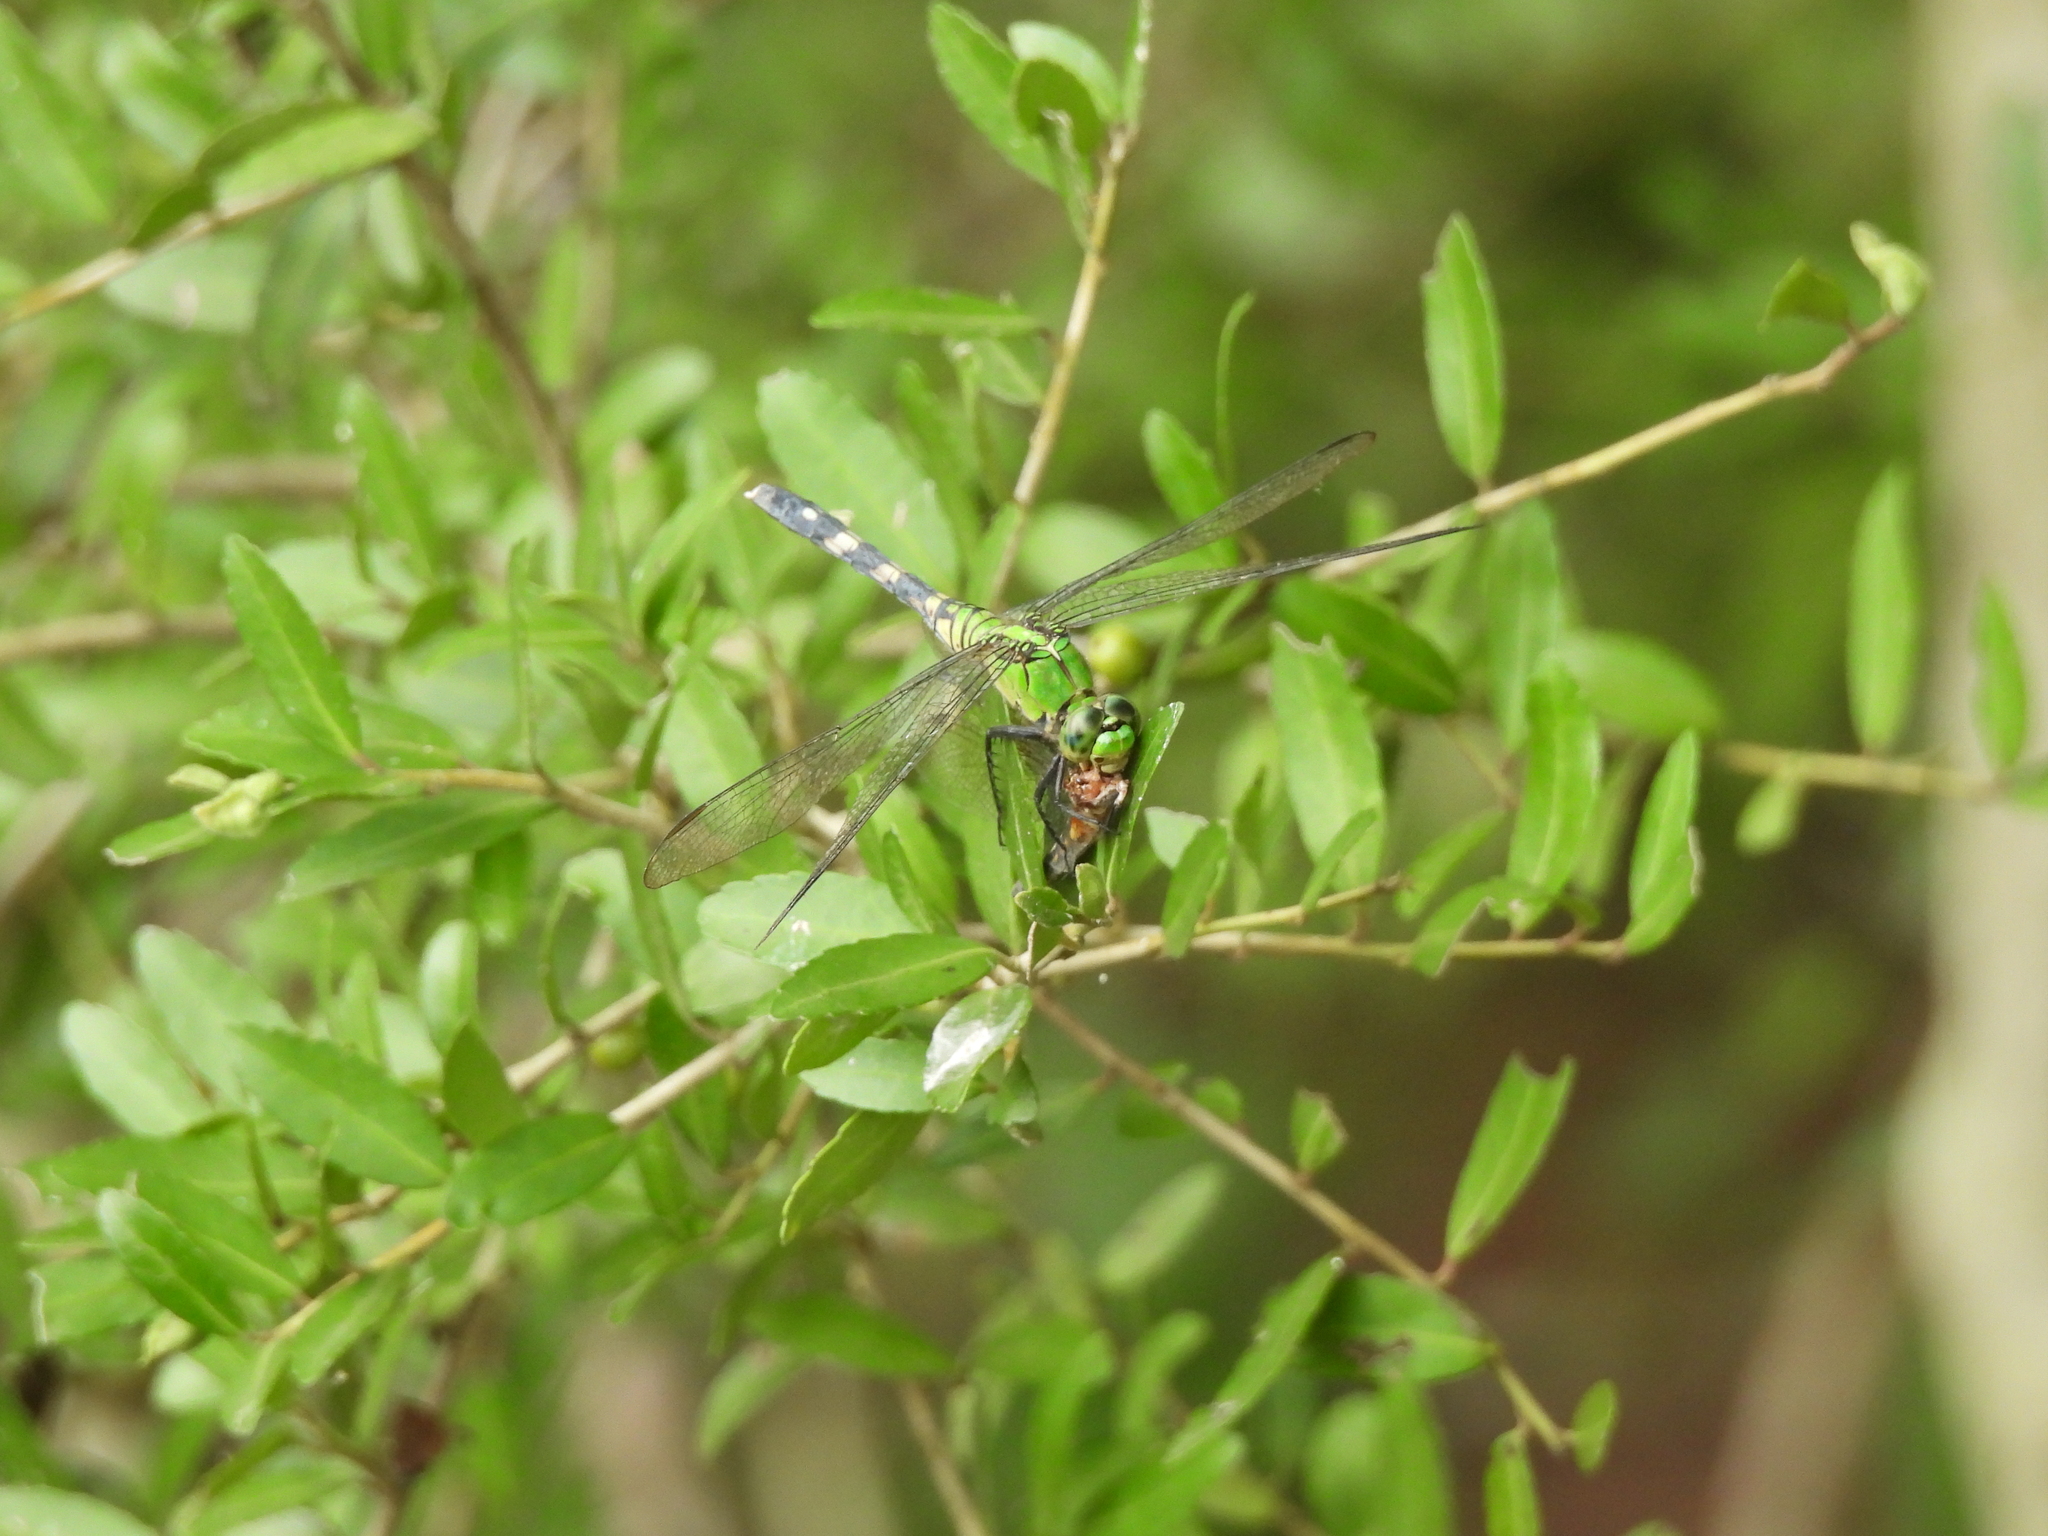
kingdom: Animalia
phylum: Arthropoda
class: Insecta
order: Odonata
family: Libellulidae
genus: Erythemis
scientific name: Erythemis simplicicollis
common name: Eastern pondhawk
